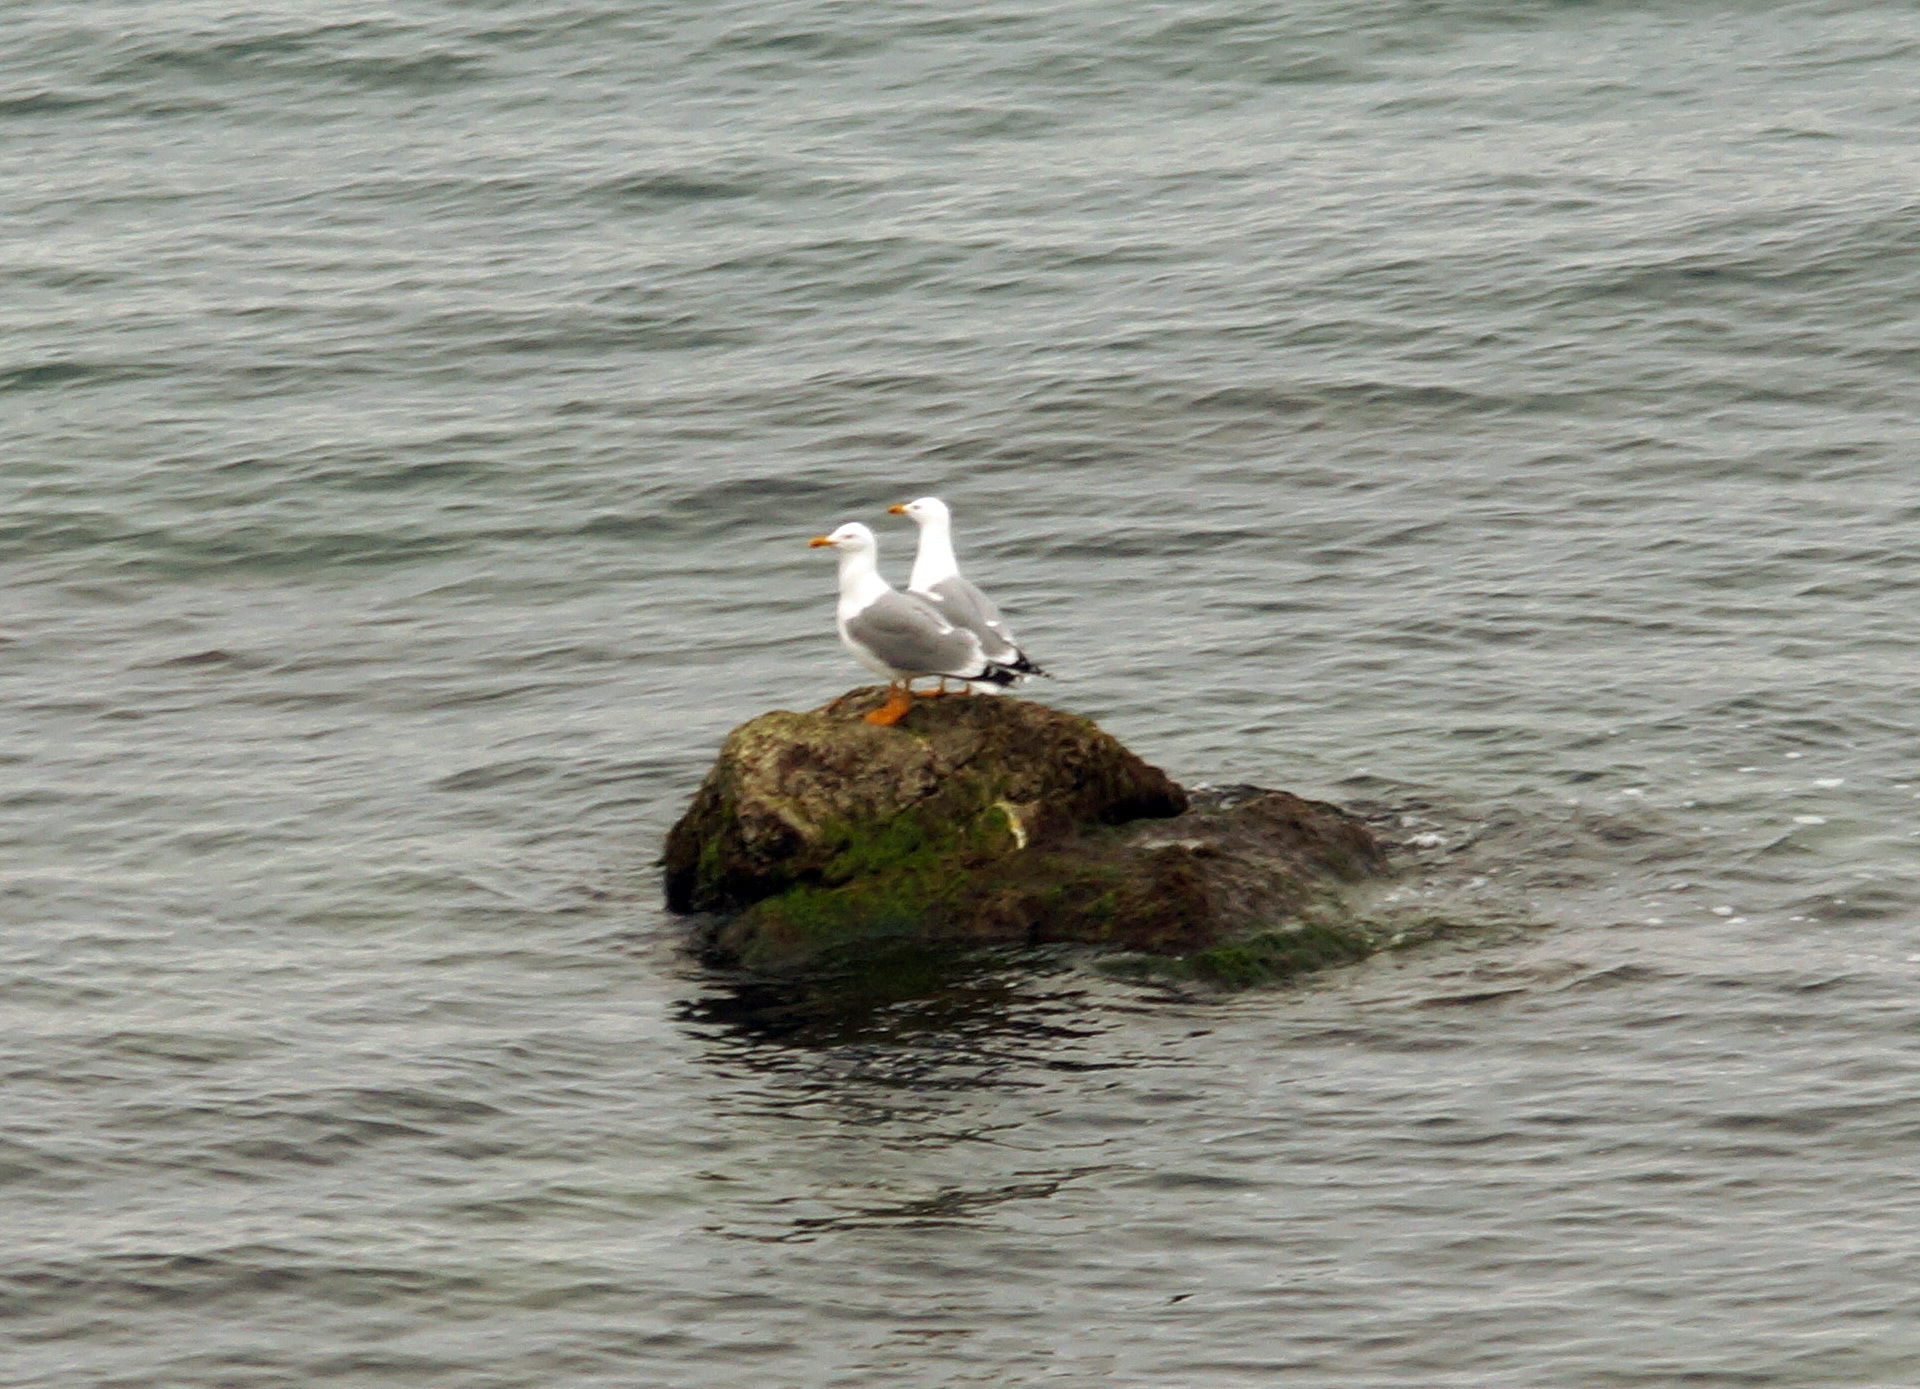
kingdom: Animalia
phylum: Chordata
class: Aves
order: Charadriiformes
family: Laridae
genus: Larus
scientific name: Larus michahellis
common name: Yellow-legged gull
